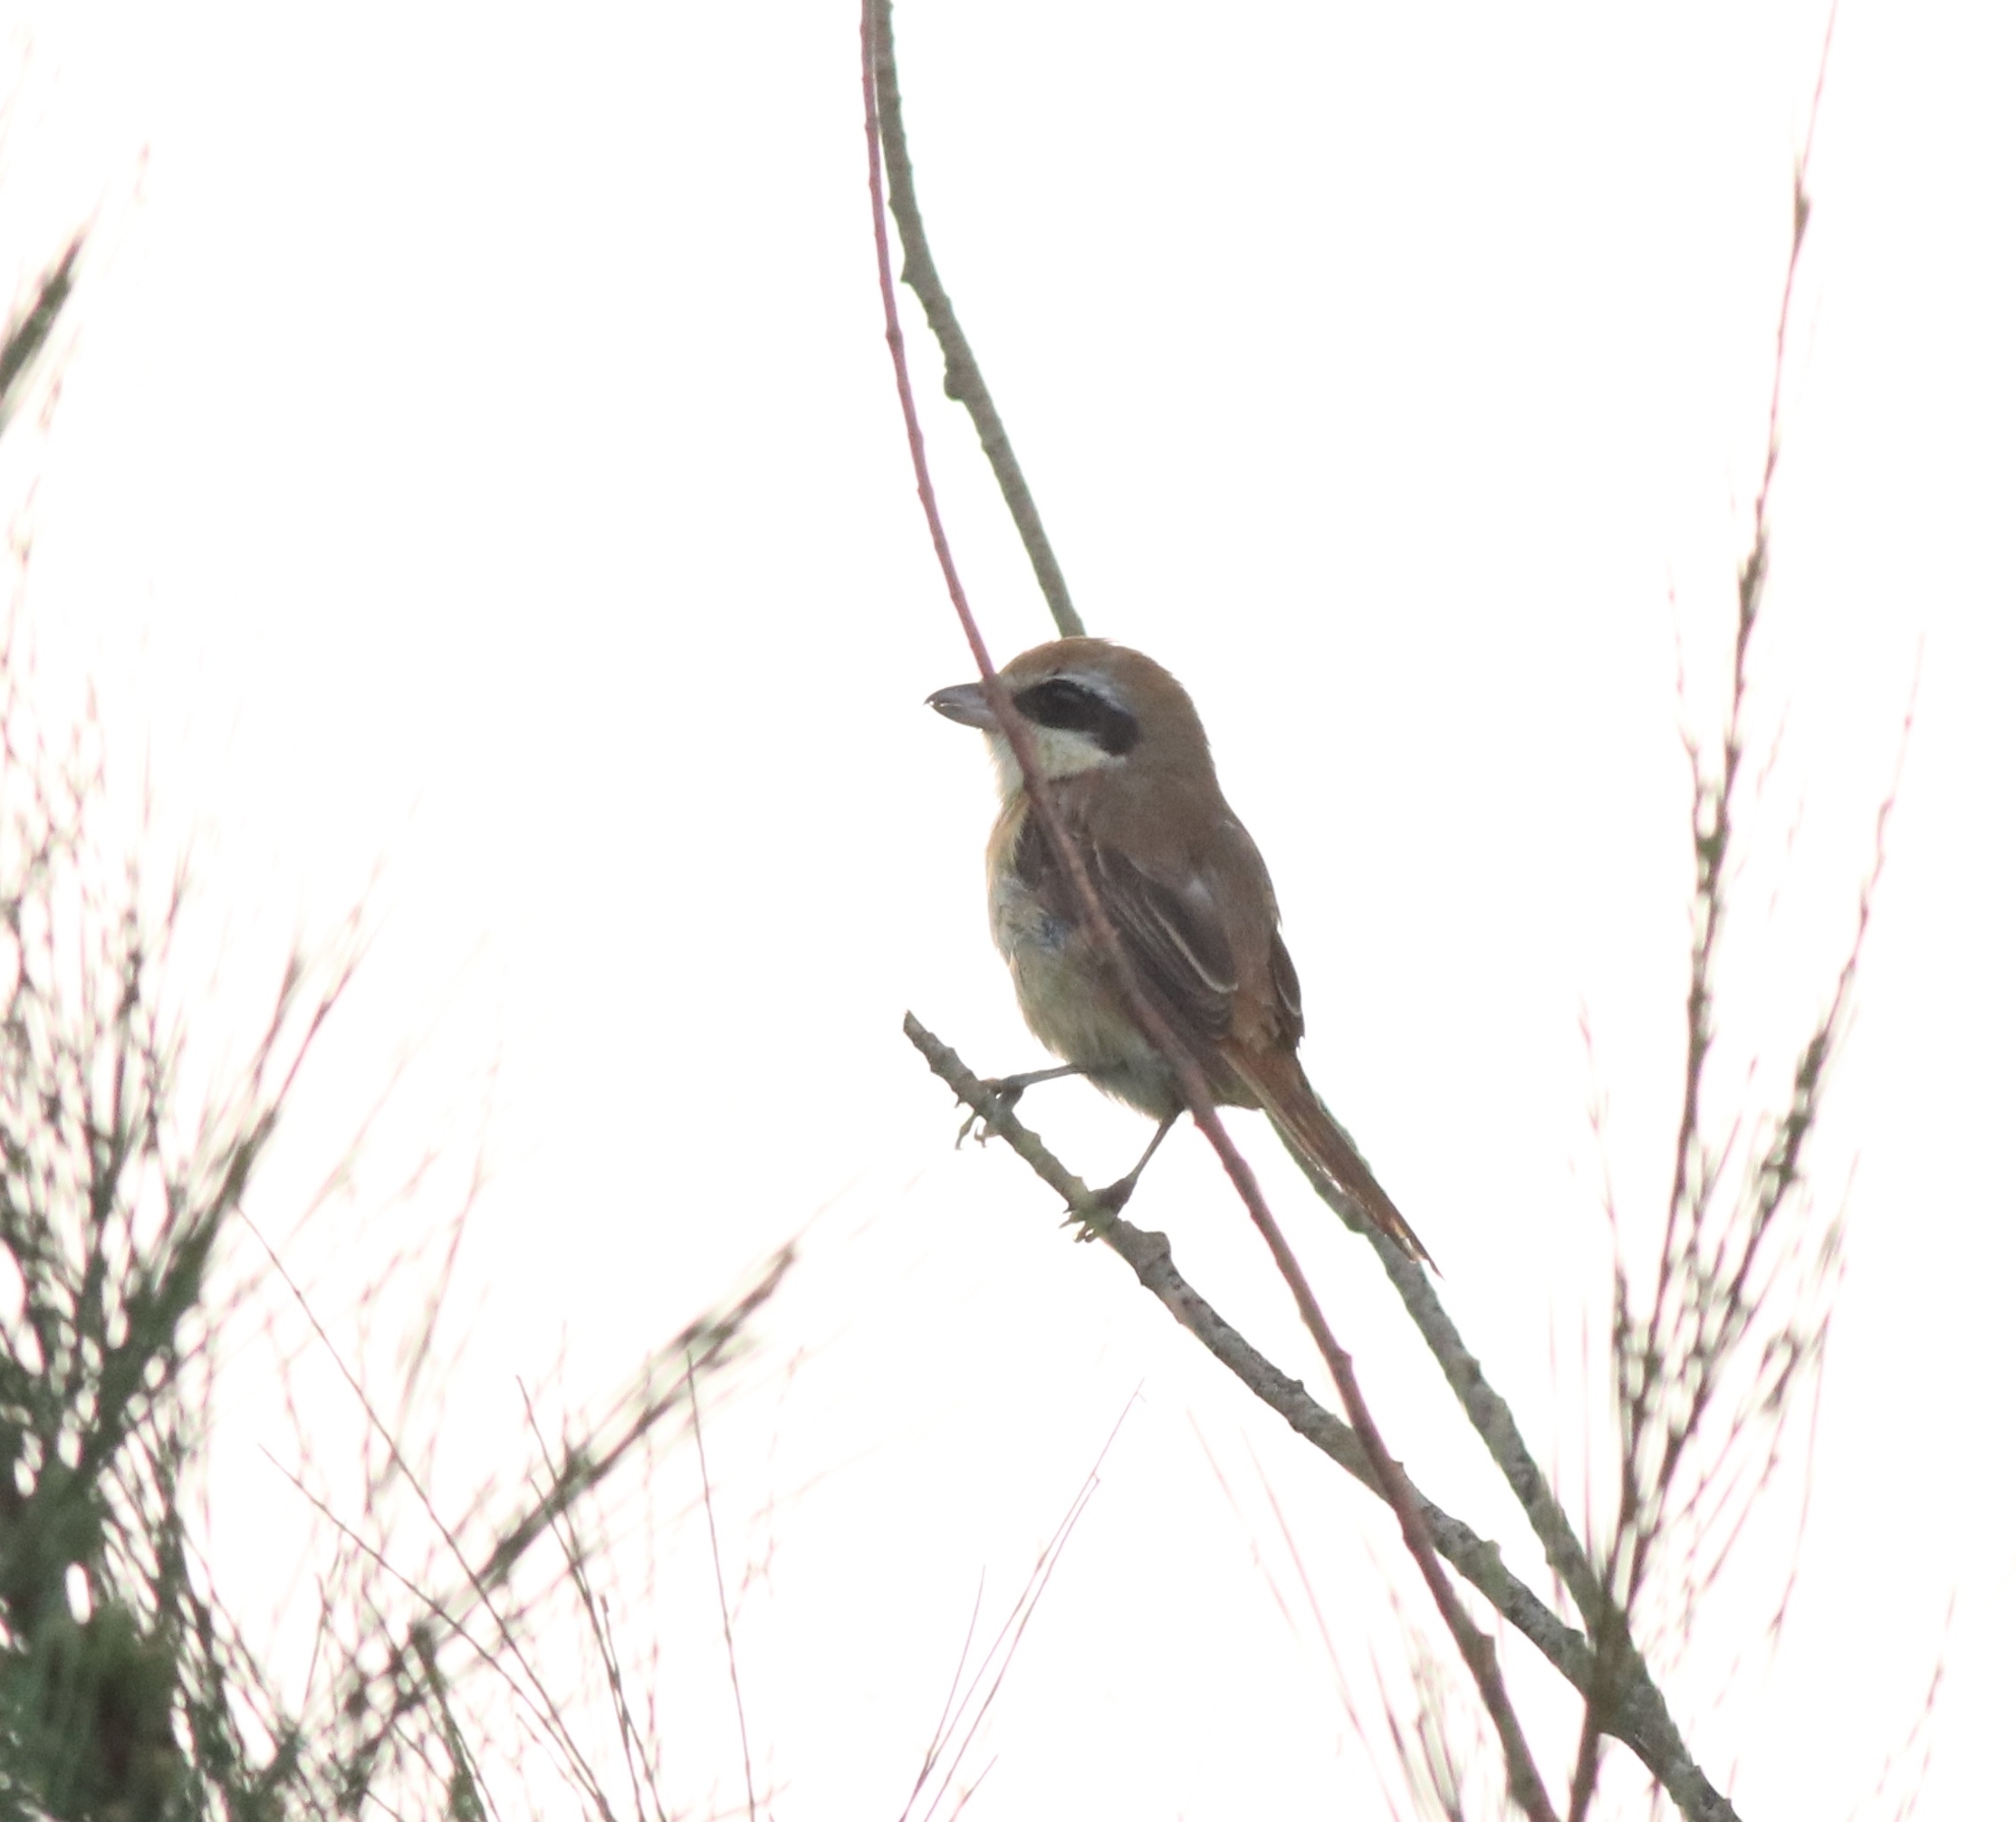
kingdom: Animalia
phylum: Chordata
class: Aves
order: Passeriformes
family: Laniidae
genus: Lanius
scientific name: Lanius cristatus
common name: Brown shrike
